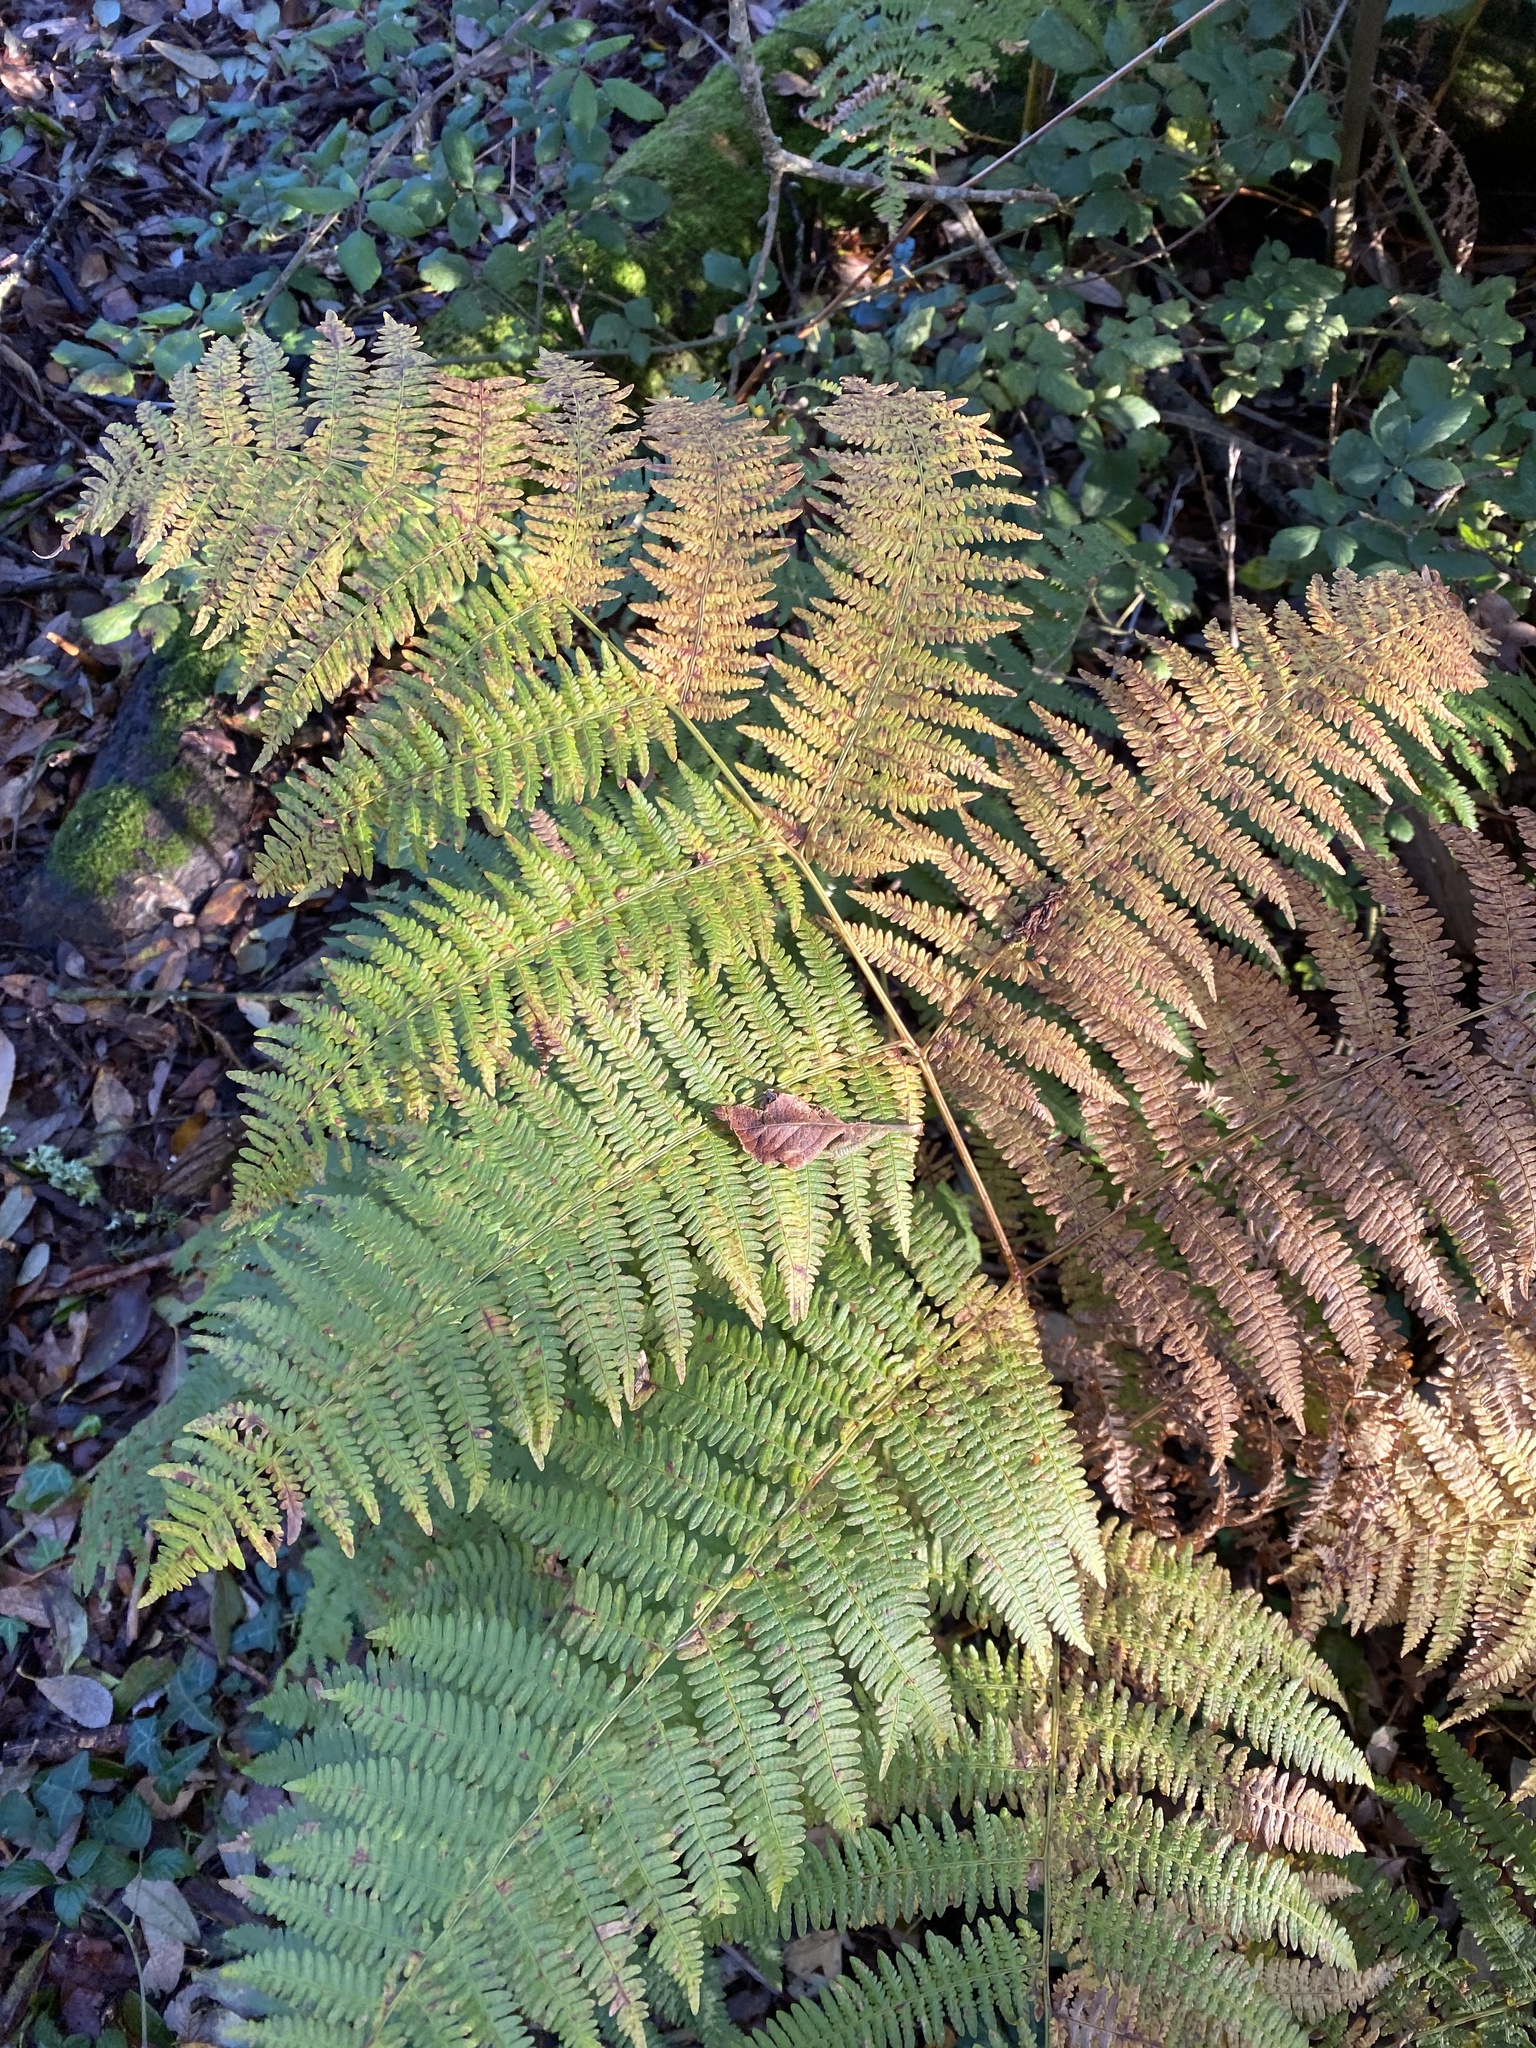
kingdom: Plantae
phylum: Tracheophyta
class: Polypodiopsida
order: Polypodiales
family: Dennstaedtiaceae
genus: Pteridium
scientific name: Pteridium aquilinum
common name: Bracken
